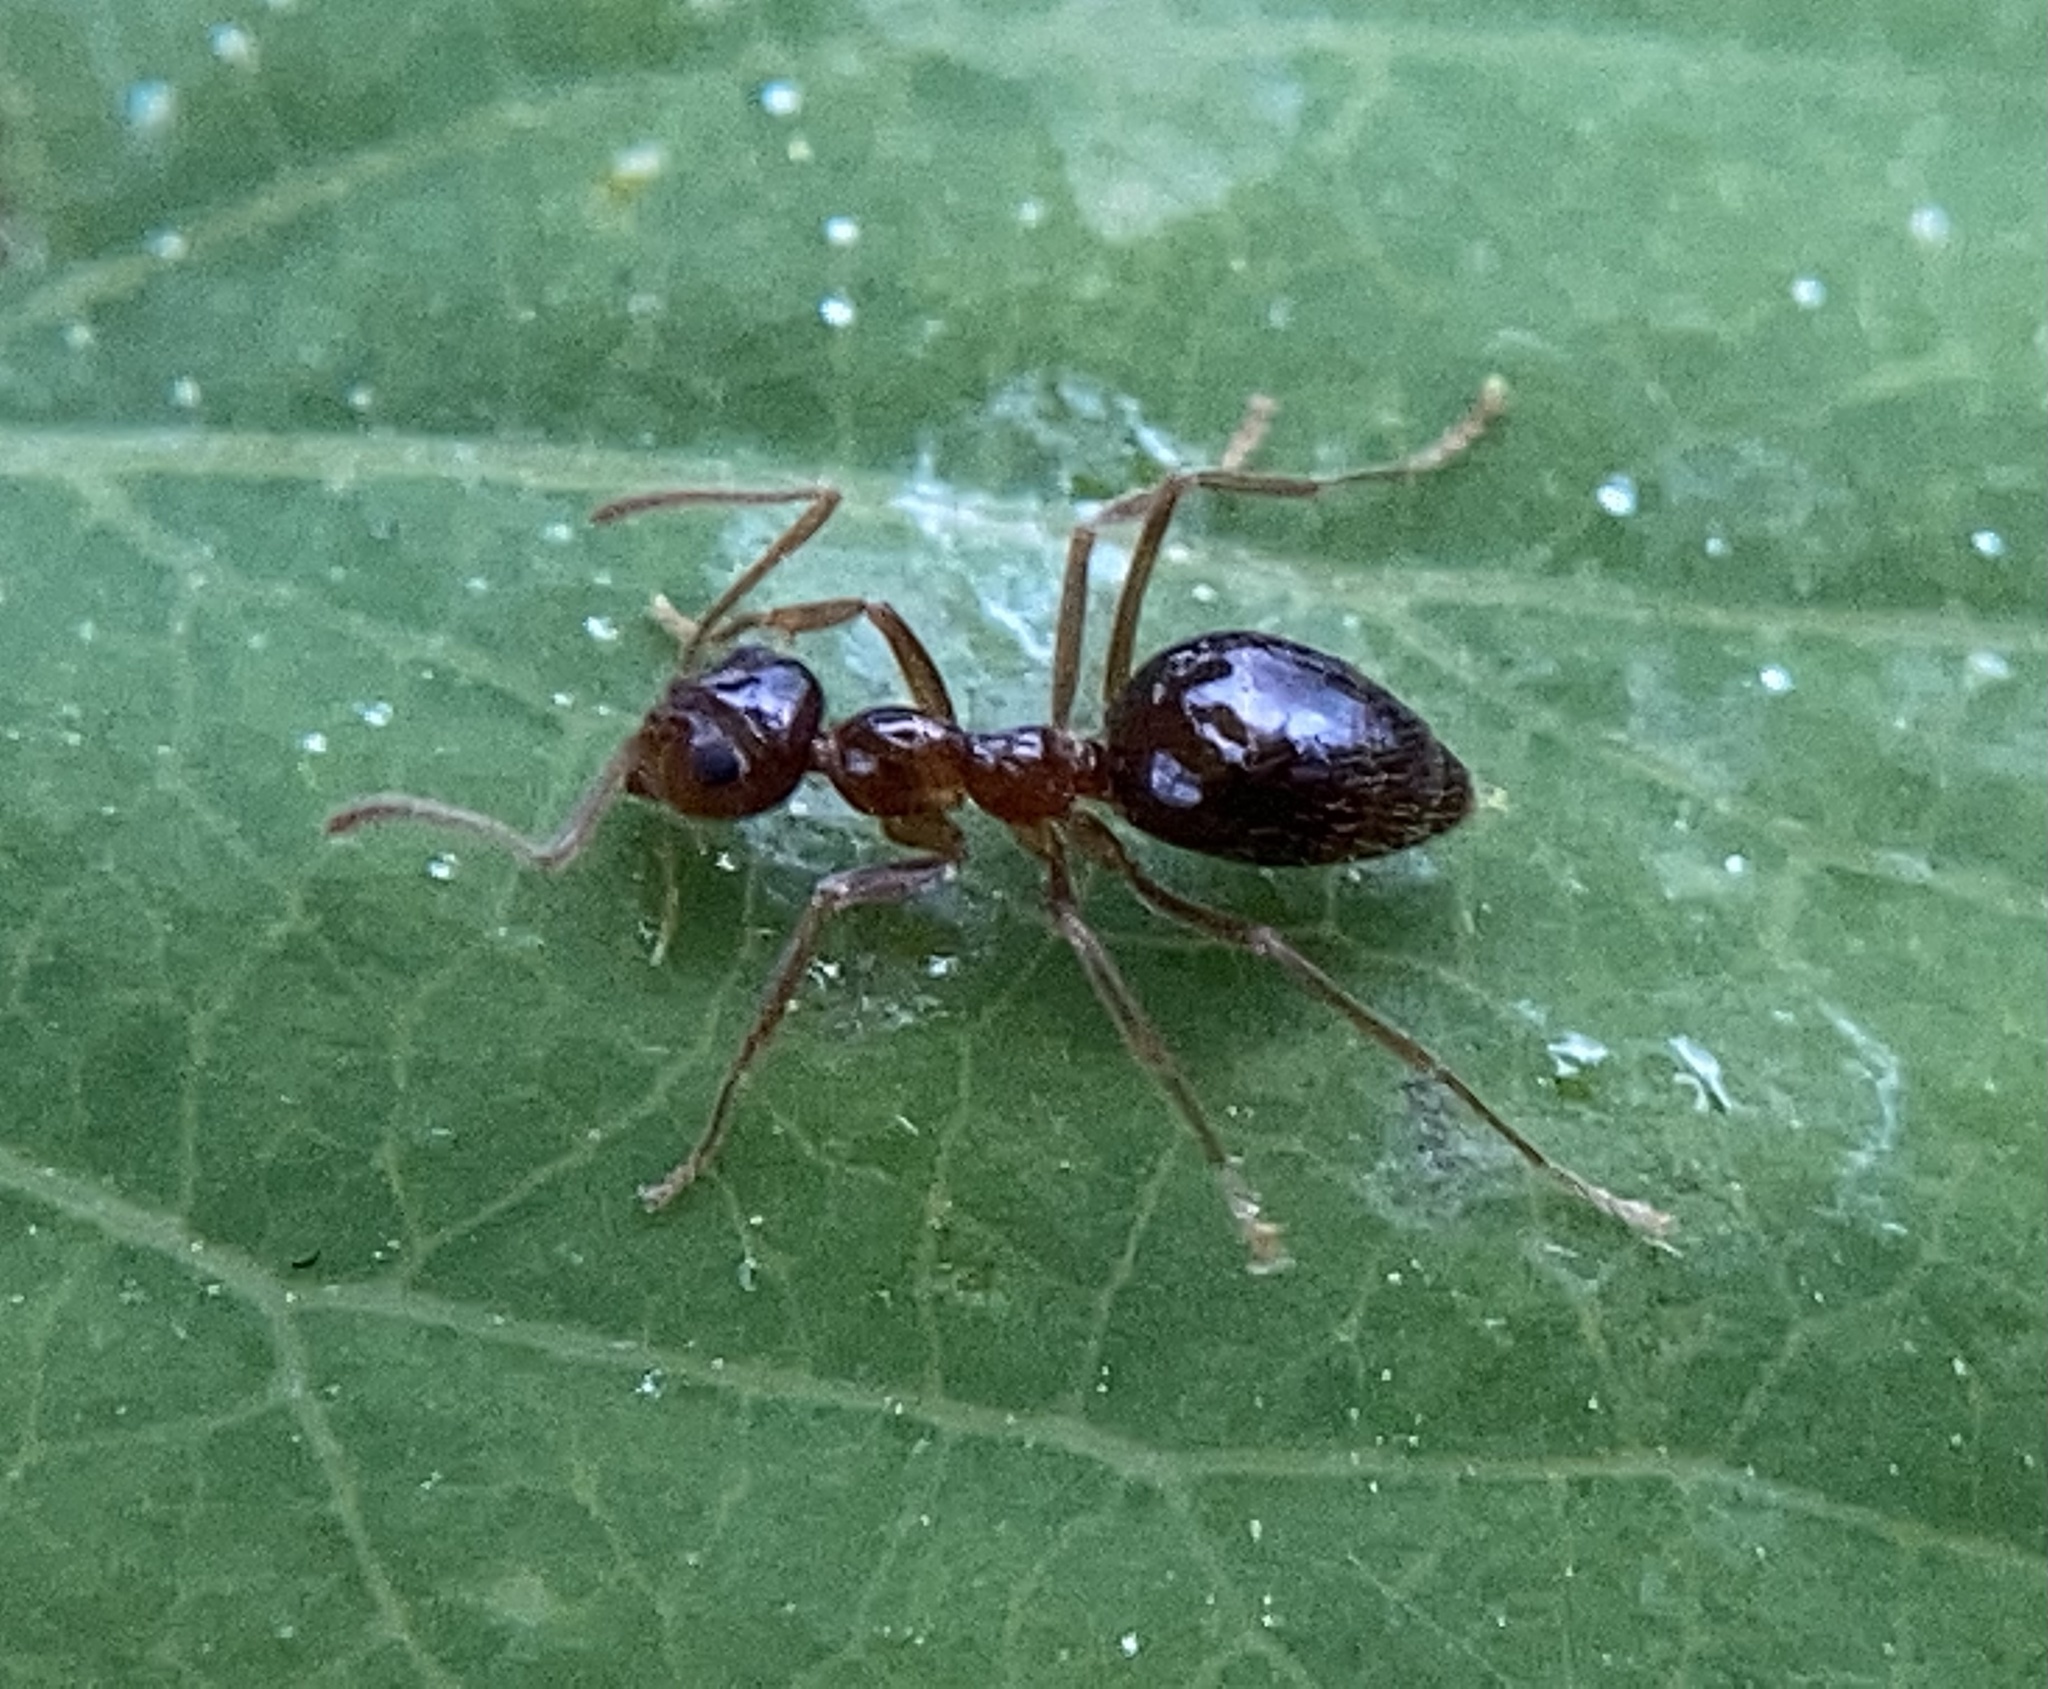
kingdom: Animalia
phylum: Arthropoda
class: Insecta
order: Hymenoptera
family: Formicidae
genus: Prenolepis
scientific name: Prenolepis imparis
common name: Small honey ant
